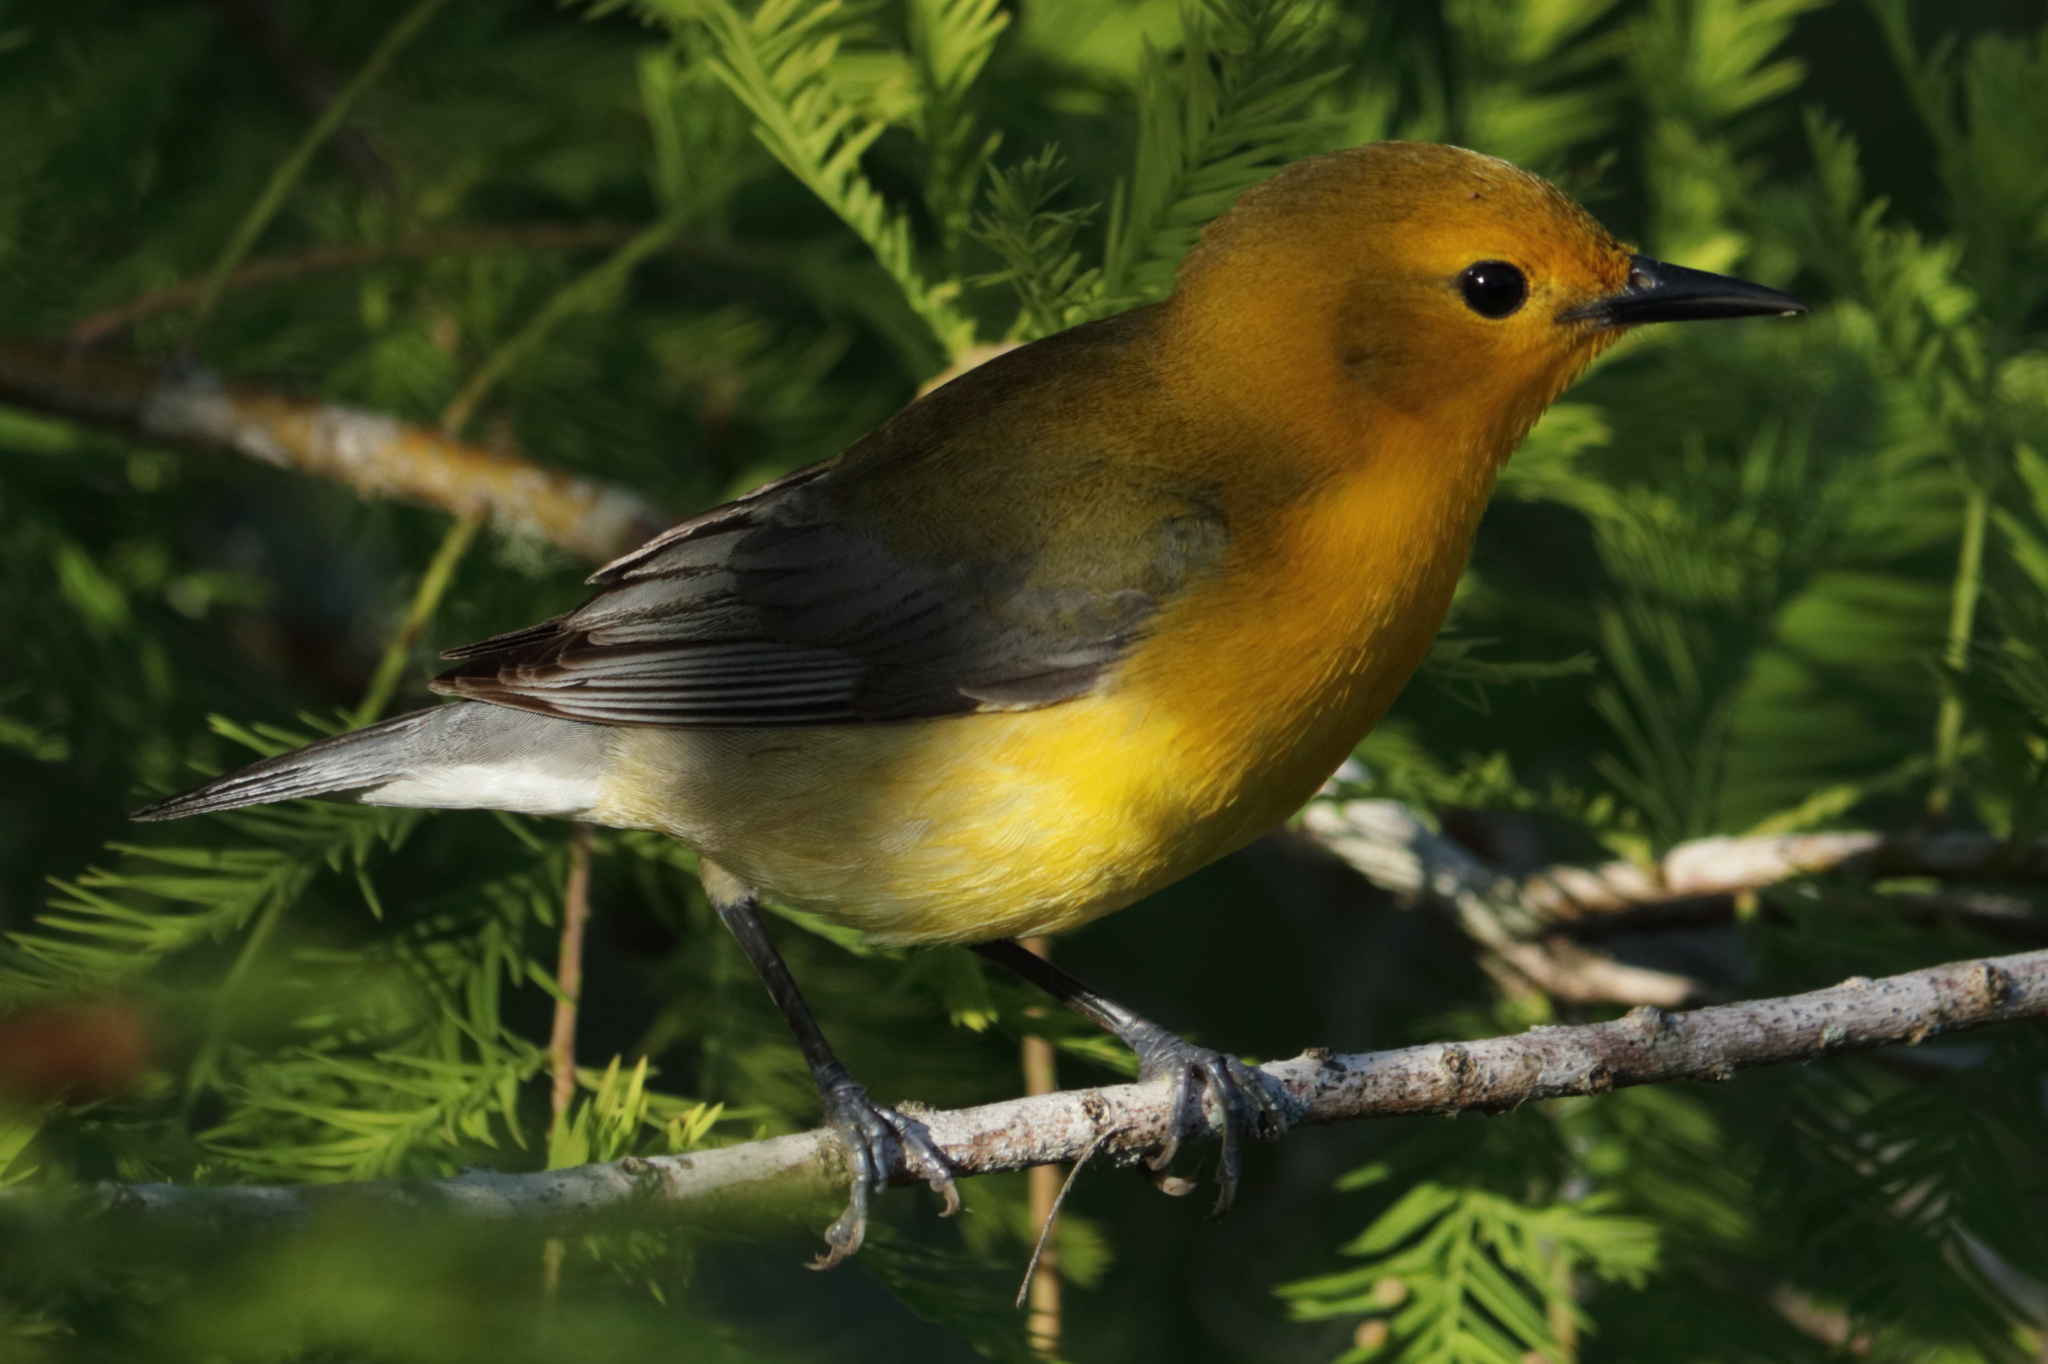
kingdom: Animalia
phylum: Chordata
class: Aves
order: Passeriformes
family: Parulidae
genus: Protonotaria
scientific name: Protonotaria citrea
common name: Prothonotary warbler
